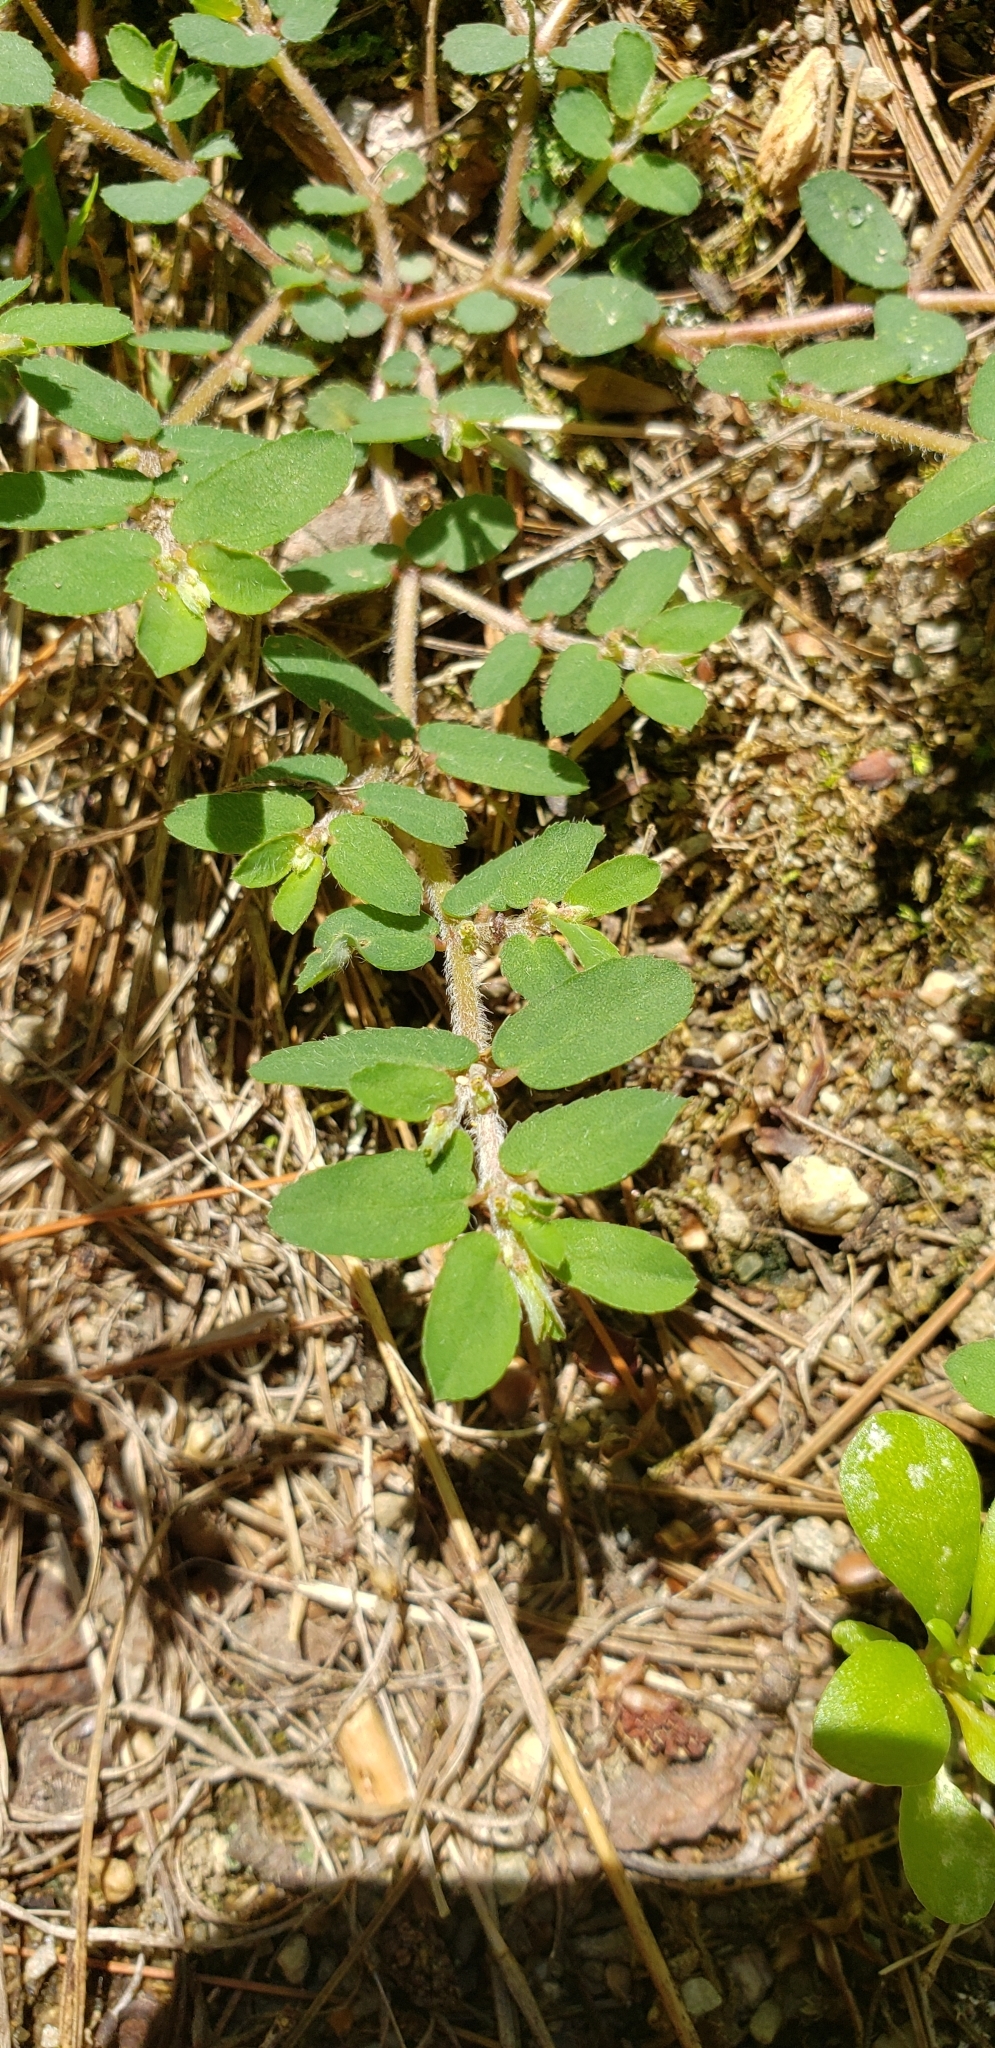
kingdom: Plantae
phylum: Tracheophyta
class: Magnoliopsida
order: Malpighiales
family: Euphorbiaceae
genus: Euphorbia
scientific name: Euphorbia maculata
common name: Spotted spurge
